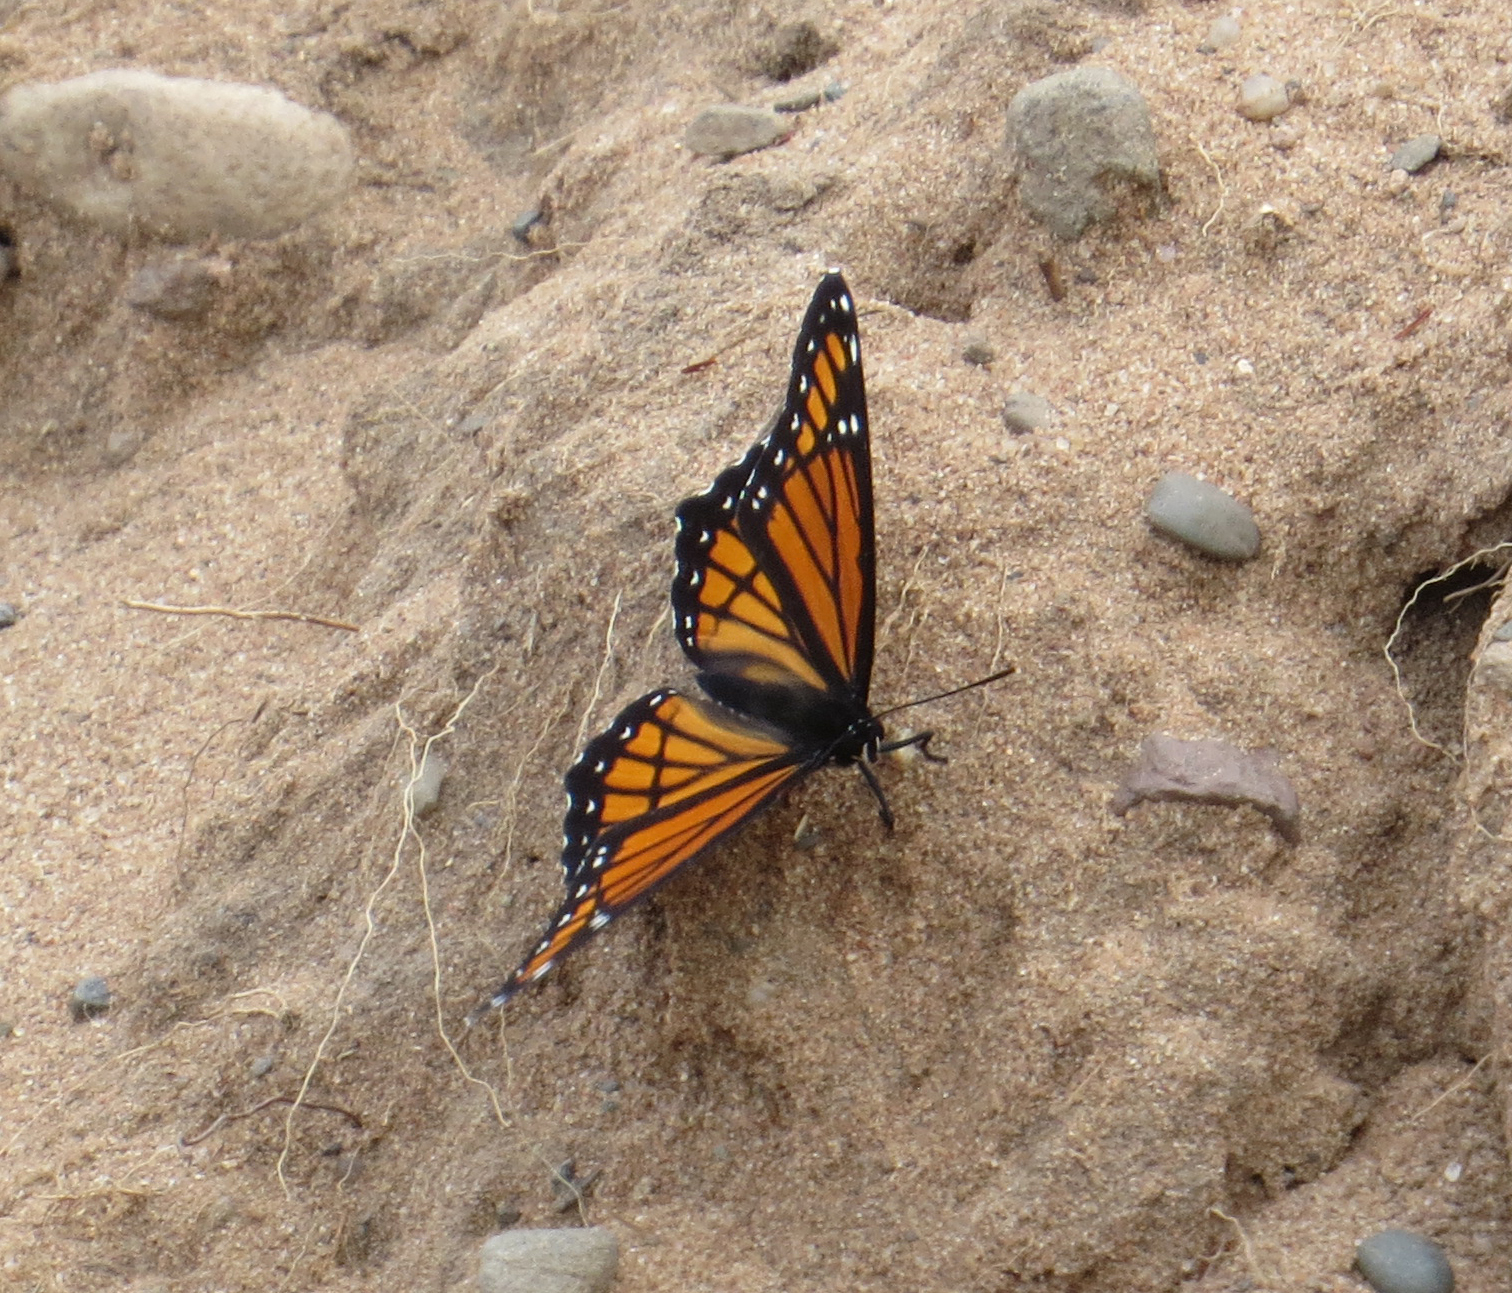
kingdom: Animalia
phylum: Arthropoda
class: Insecta
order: Lepidoptera
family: Nymphalidae
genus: Limenitis
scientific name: Limenitis archippus
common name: Viceroy
